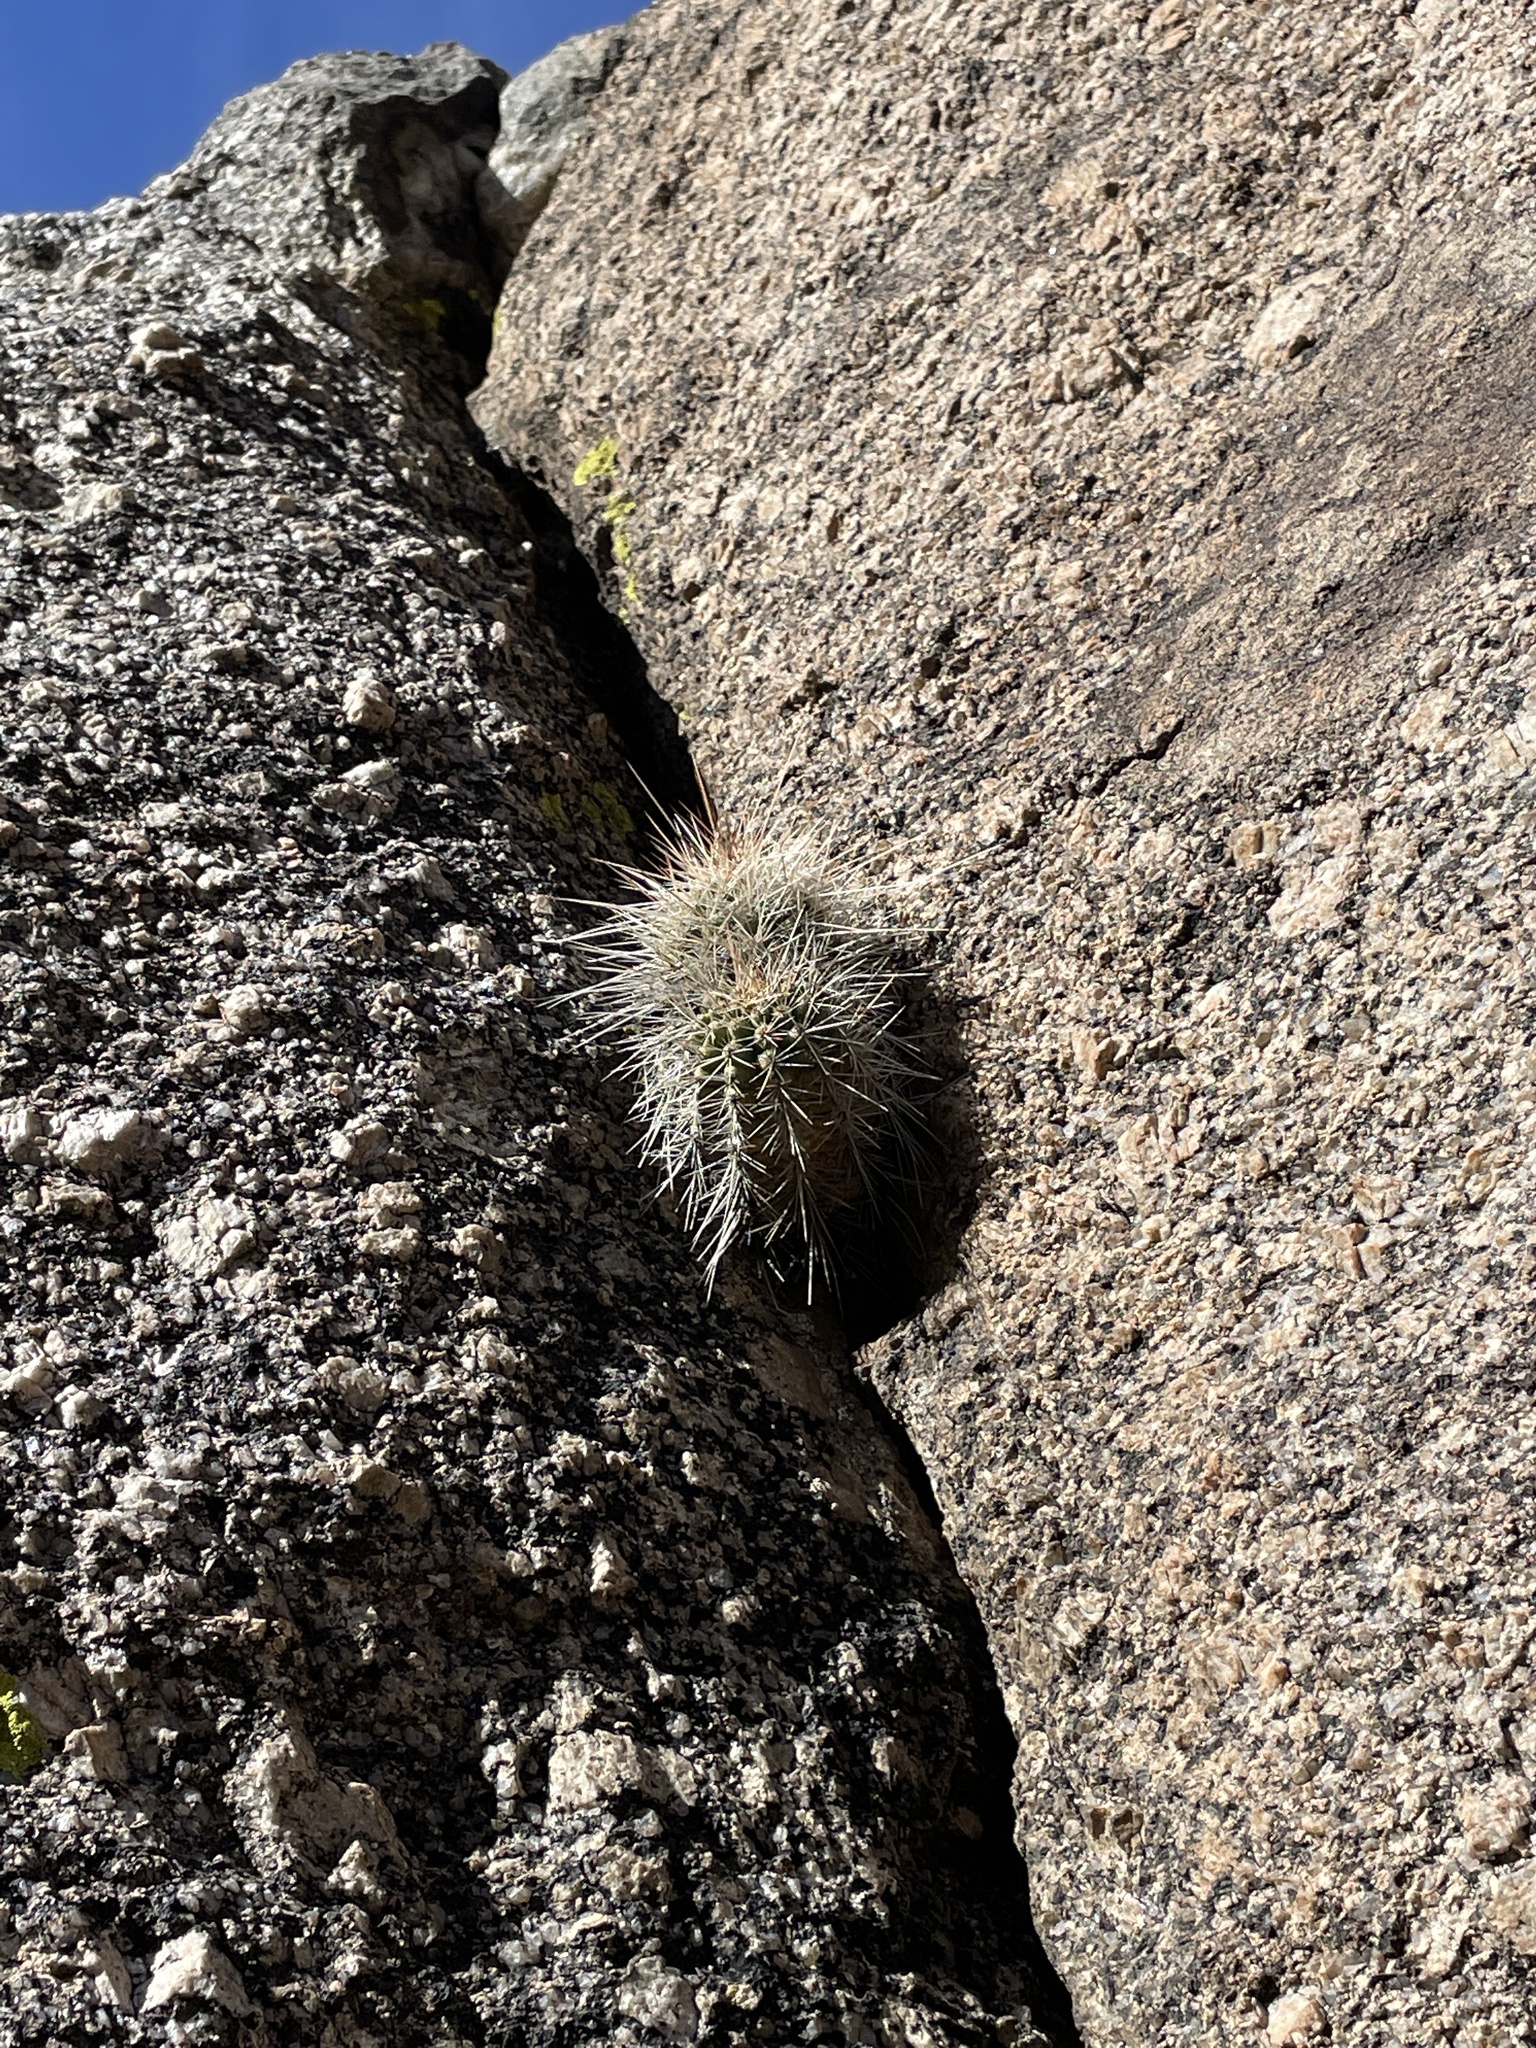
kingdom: Plantae
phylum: Tracheophyta
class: Magnoliopsida
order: Caryophyllales
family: Cactaceae
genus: Echinocereus
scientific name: Echinocereus coccineus
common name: Scarlet hedgehog cactus
